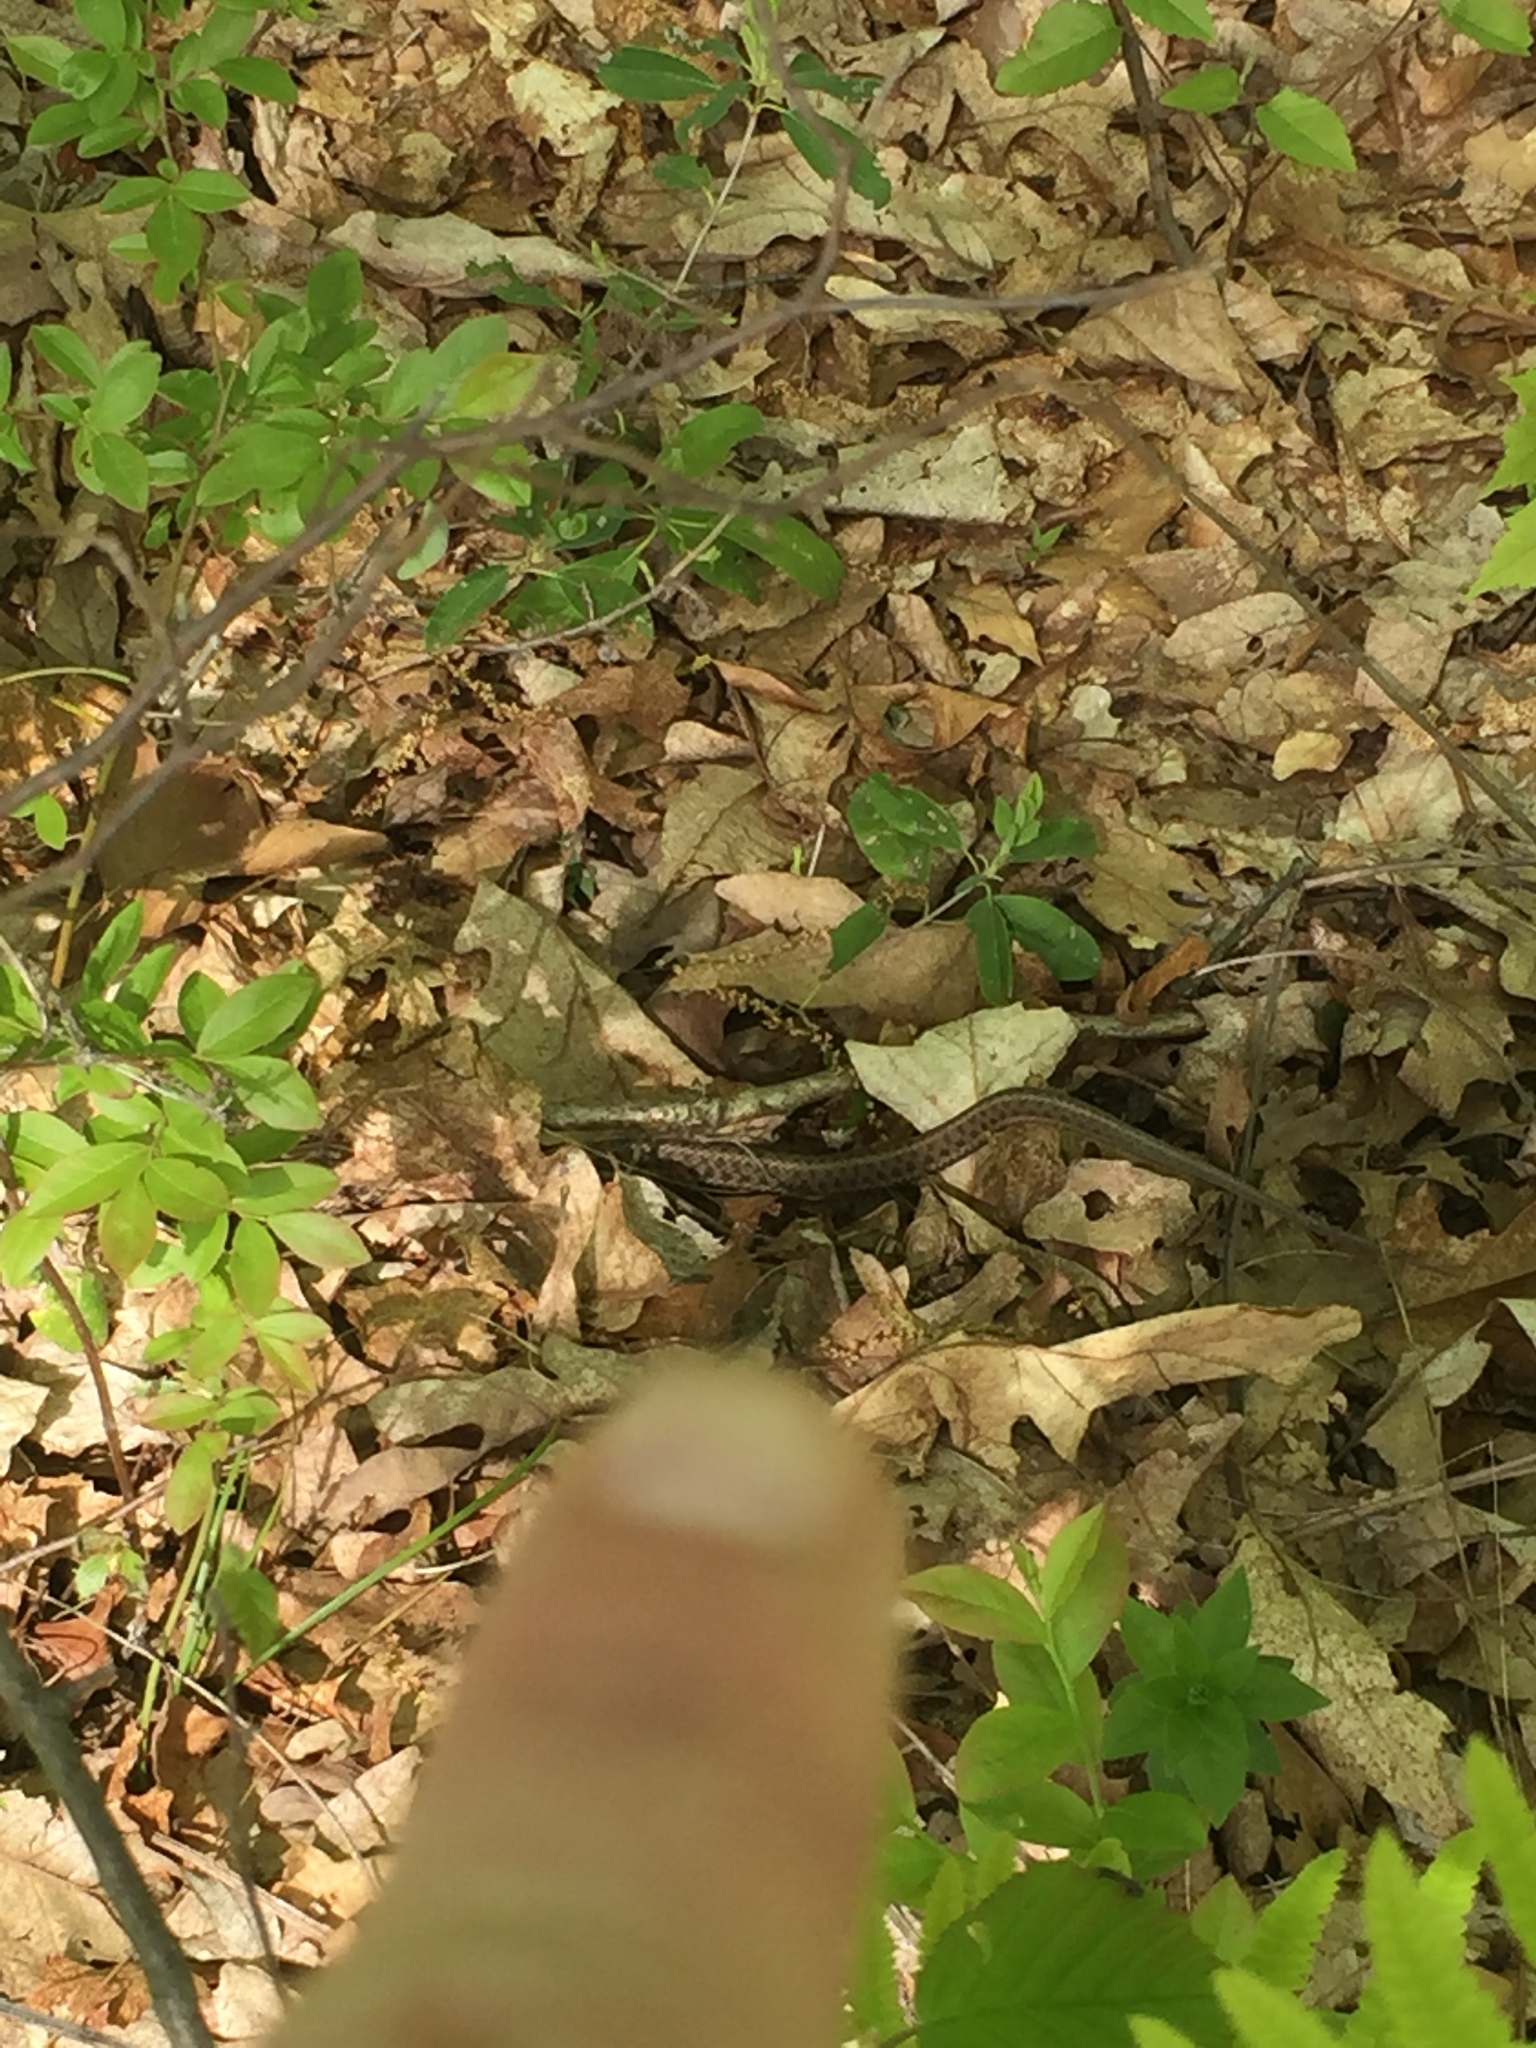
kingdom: Animalia
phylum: Chordata
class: Squamata
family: Colubridae
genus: Thamnophis
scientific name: Thamnophis sirtalis
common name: Common garter snake
